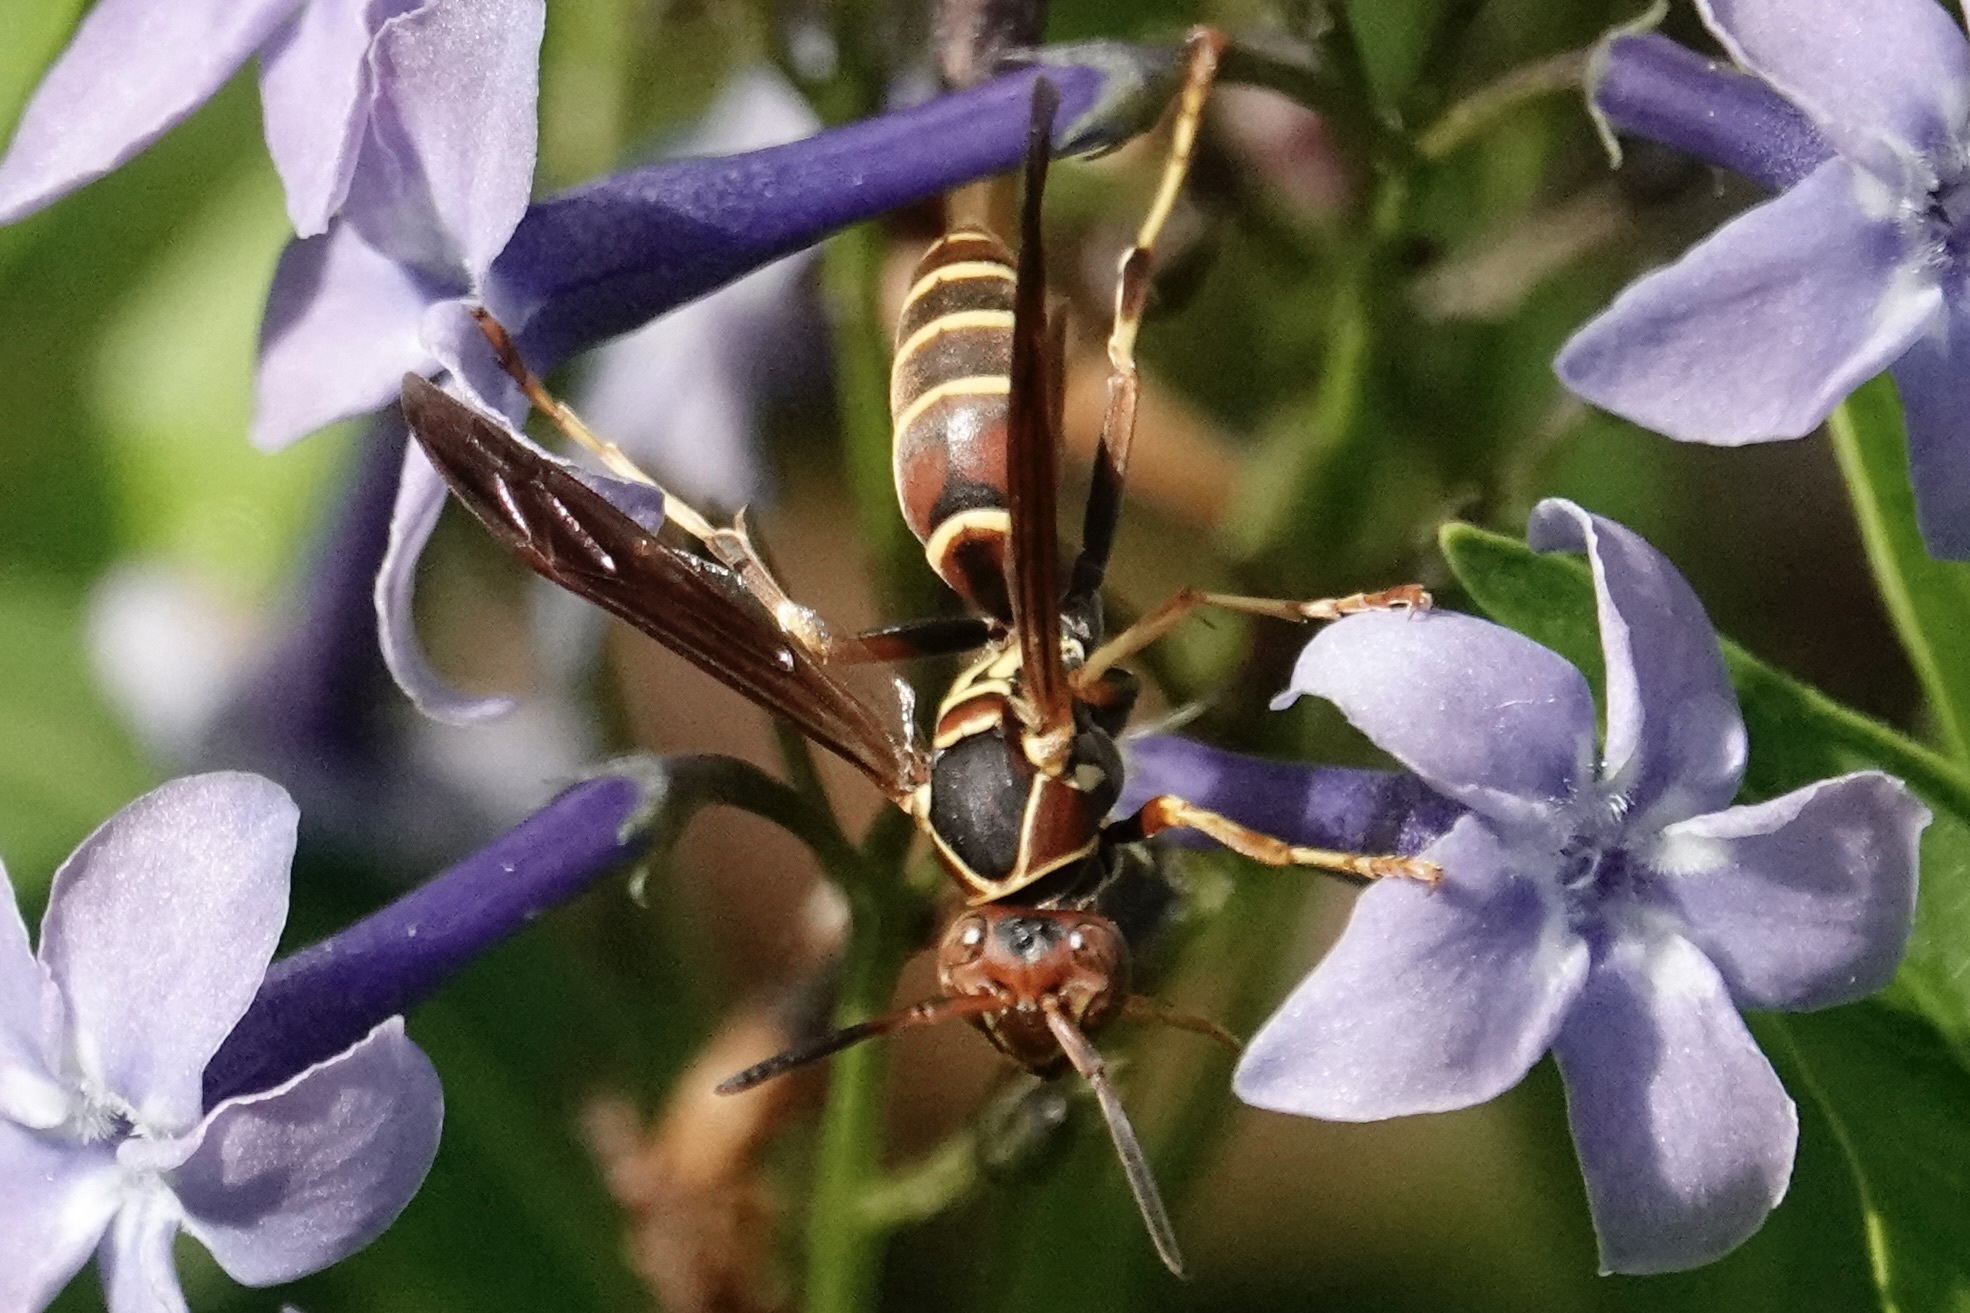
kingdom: Animalia
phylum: Arthropoda
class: Insecta
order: Hymenoptera
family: Eumenidae
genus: Polistes
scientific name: Polistes dorsalis
